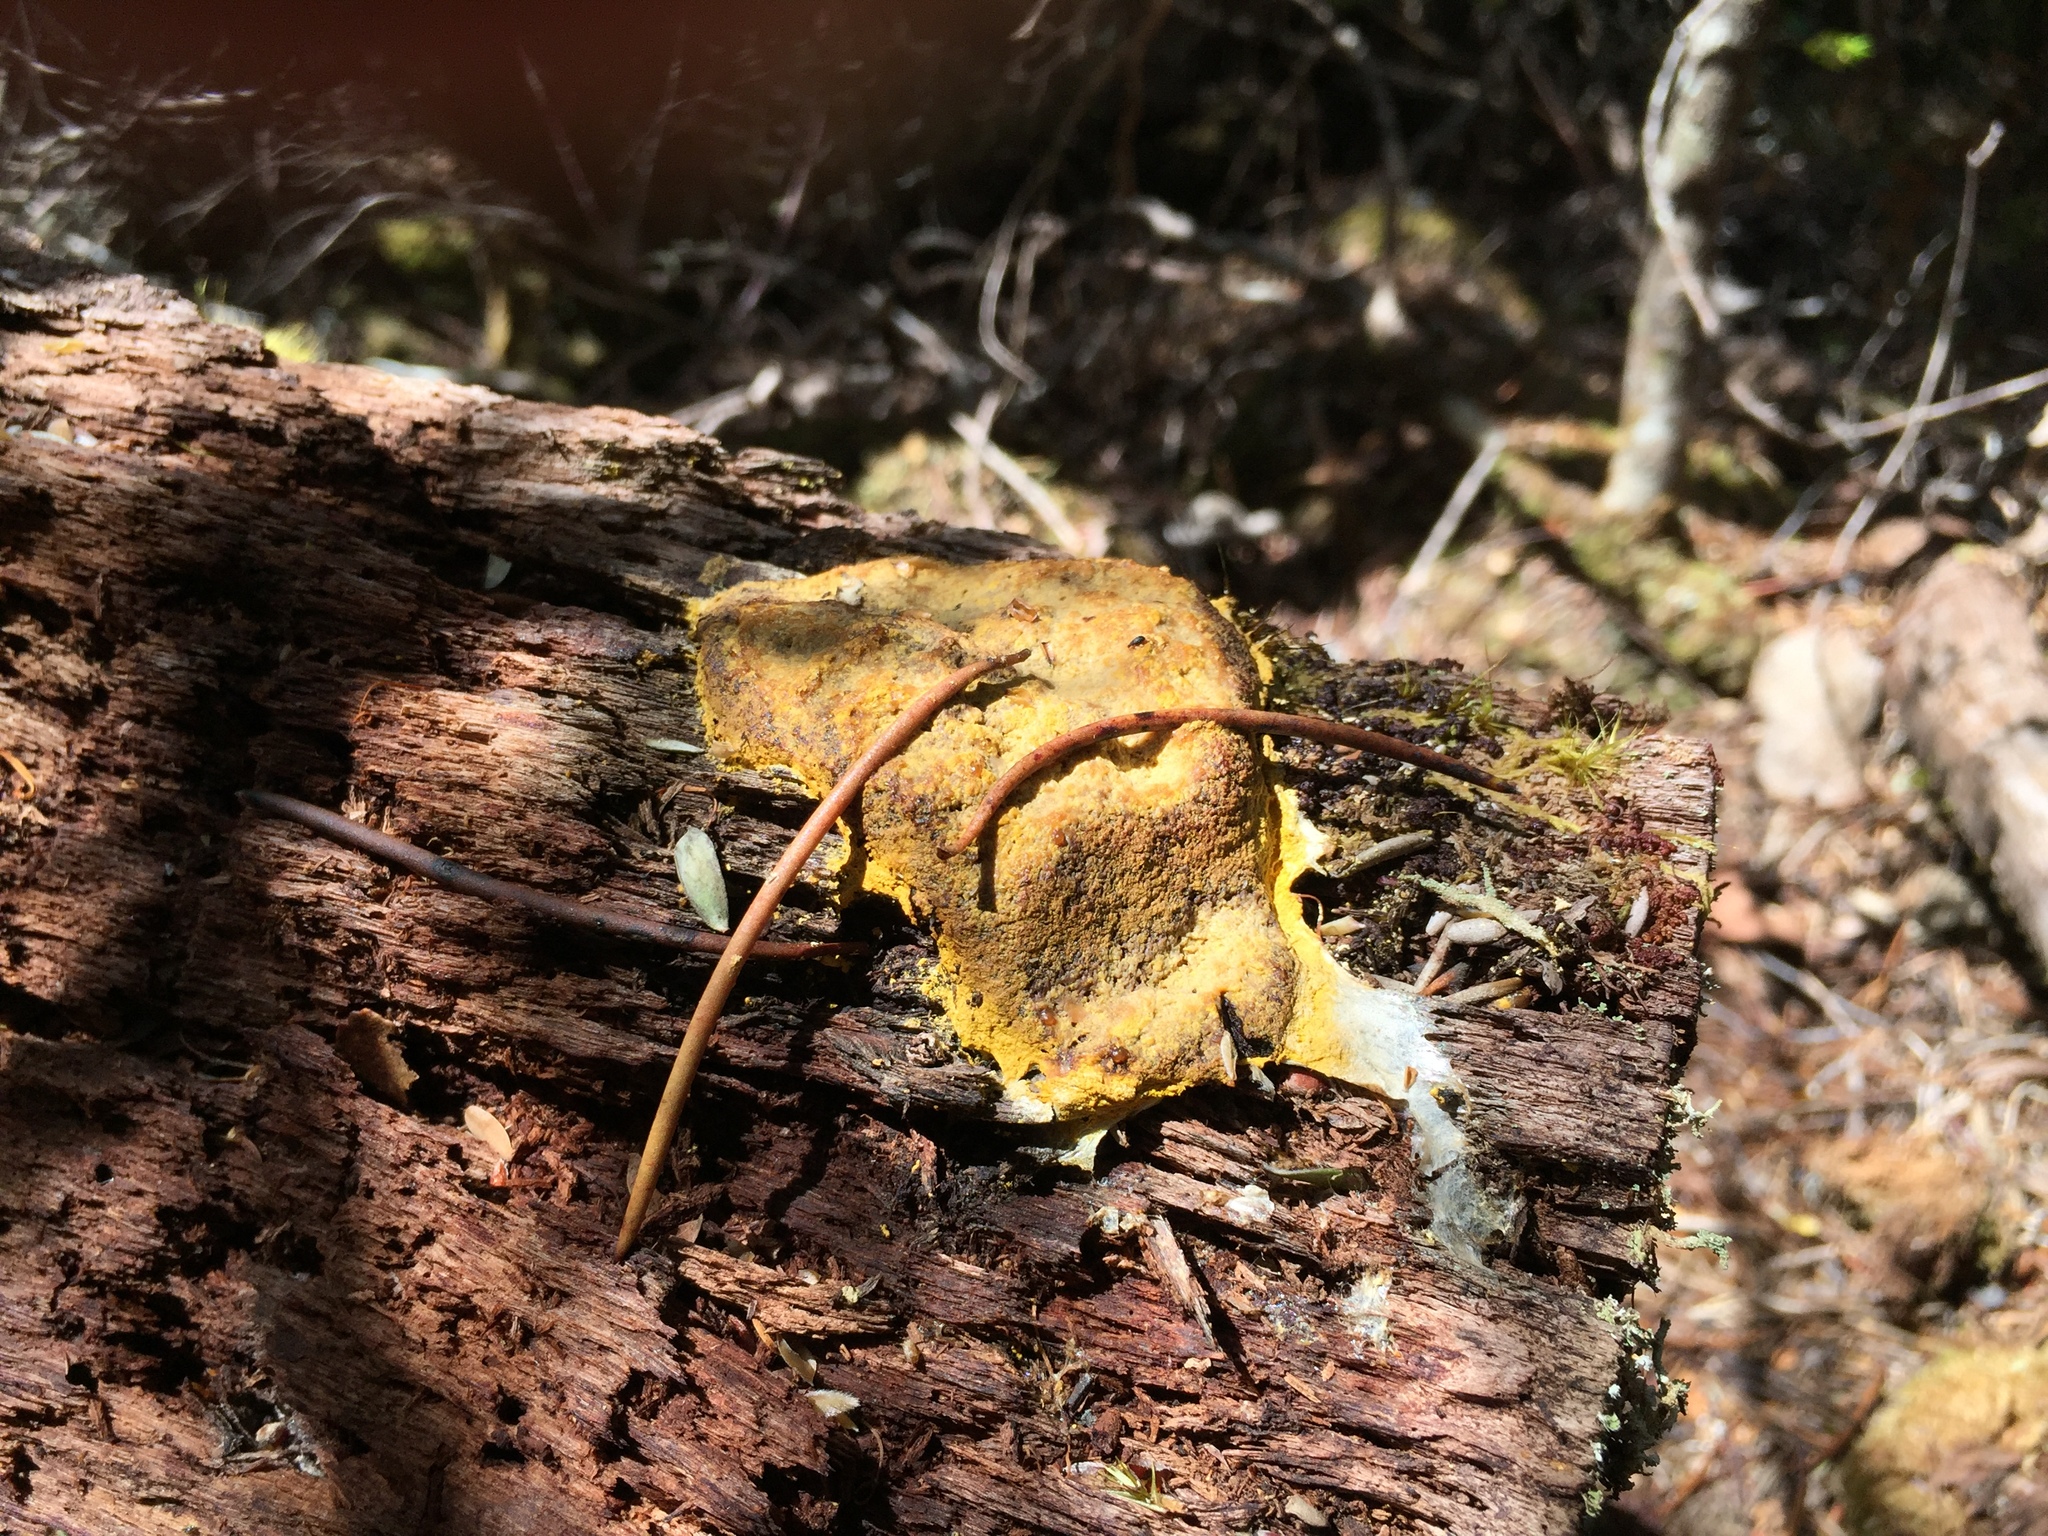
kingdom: Protozoa
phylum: Mycetozoa
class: Myxomycetes
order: Physarales
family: Physaraceae
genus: Fuligo
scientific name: Fuligo septica
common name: Dog vomit slime mold
